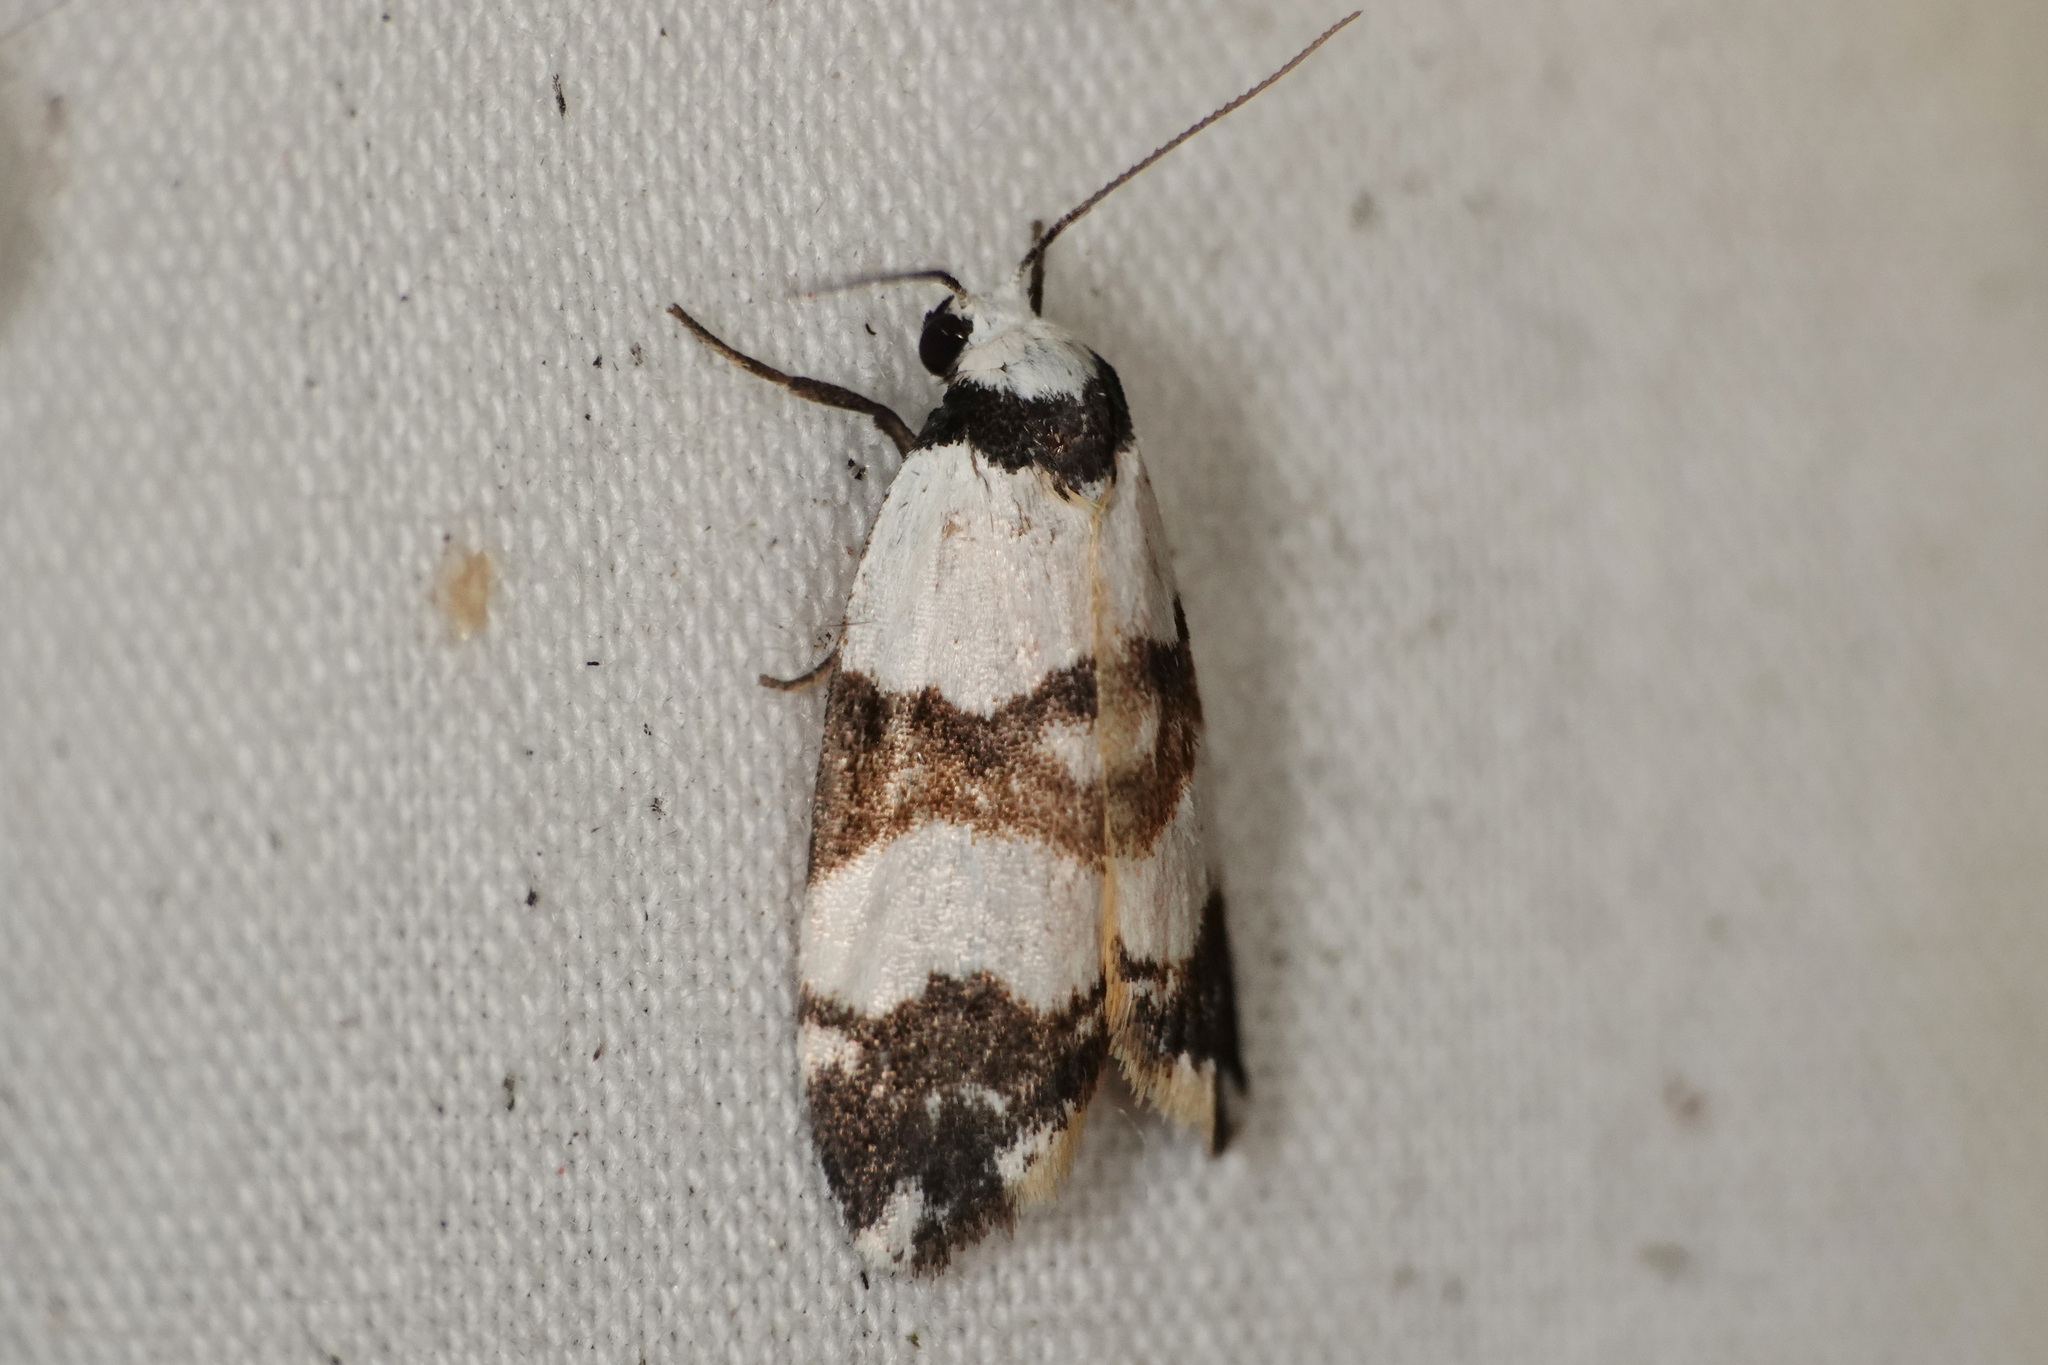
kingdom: Animalia
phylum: Arthropoda
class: Insecta
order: Lepidoptera
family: Erebidae
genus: Thallarcha
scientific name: Thallarcha albicollis
